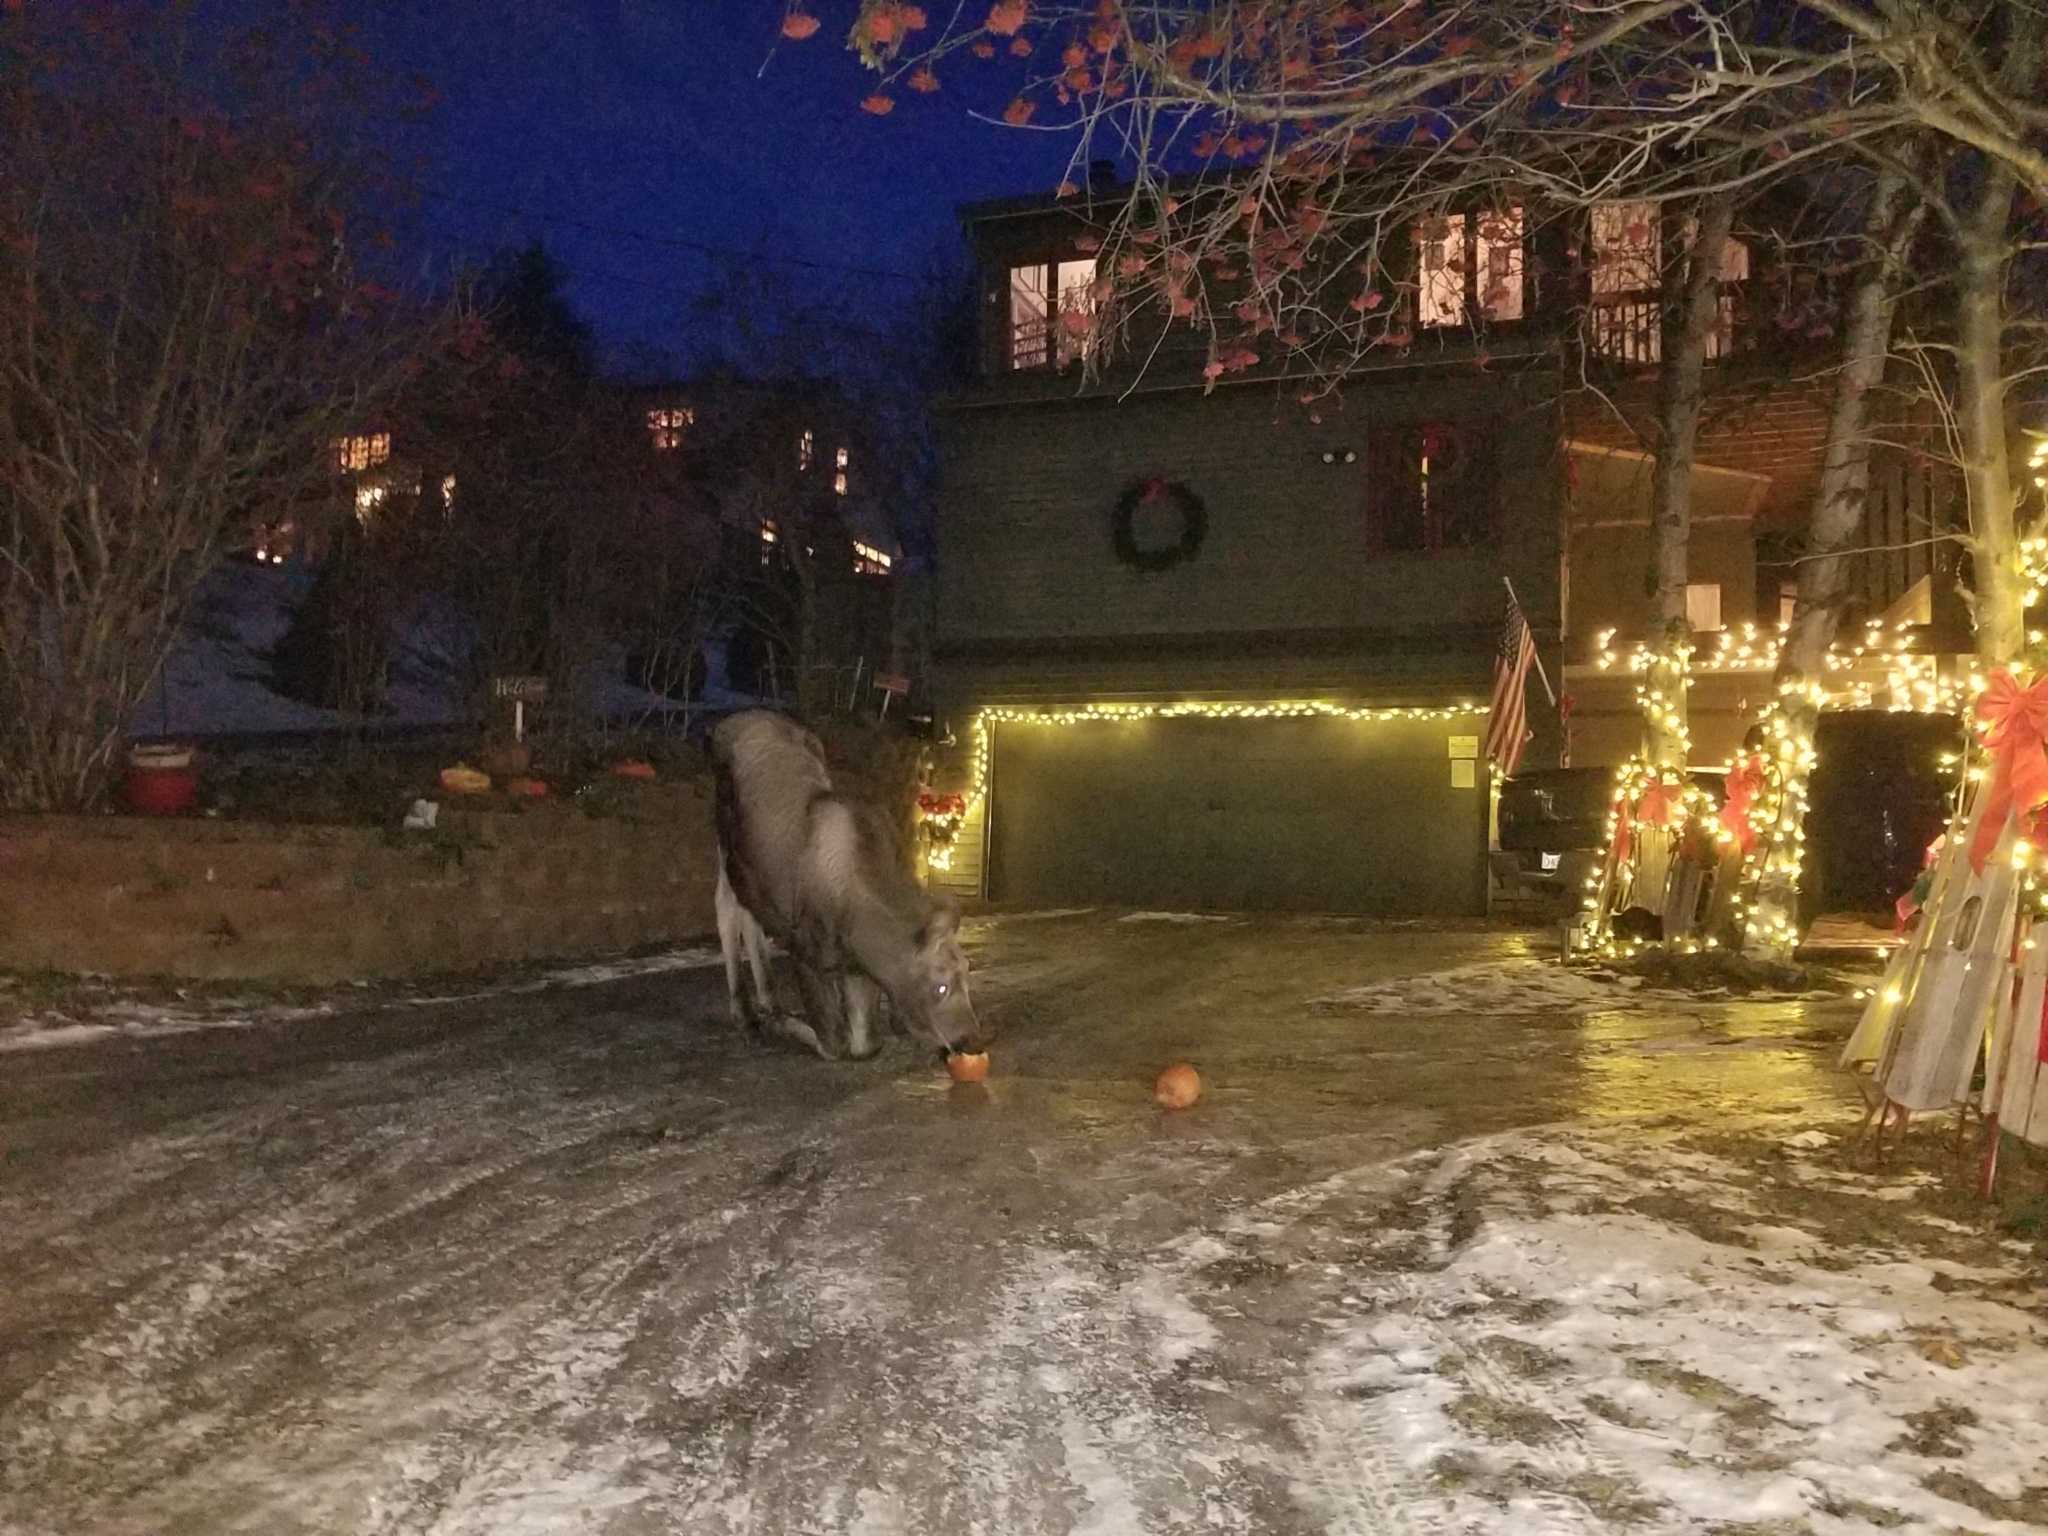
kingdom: Animalia
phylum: Chordata
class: Mammalia
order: Artiodactyla
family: Cervidae
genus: Alces
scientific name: Alces alces
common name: Moose
